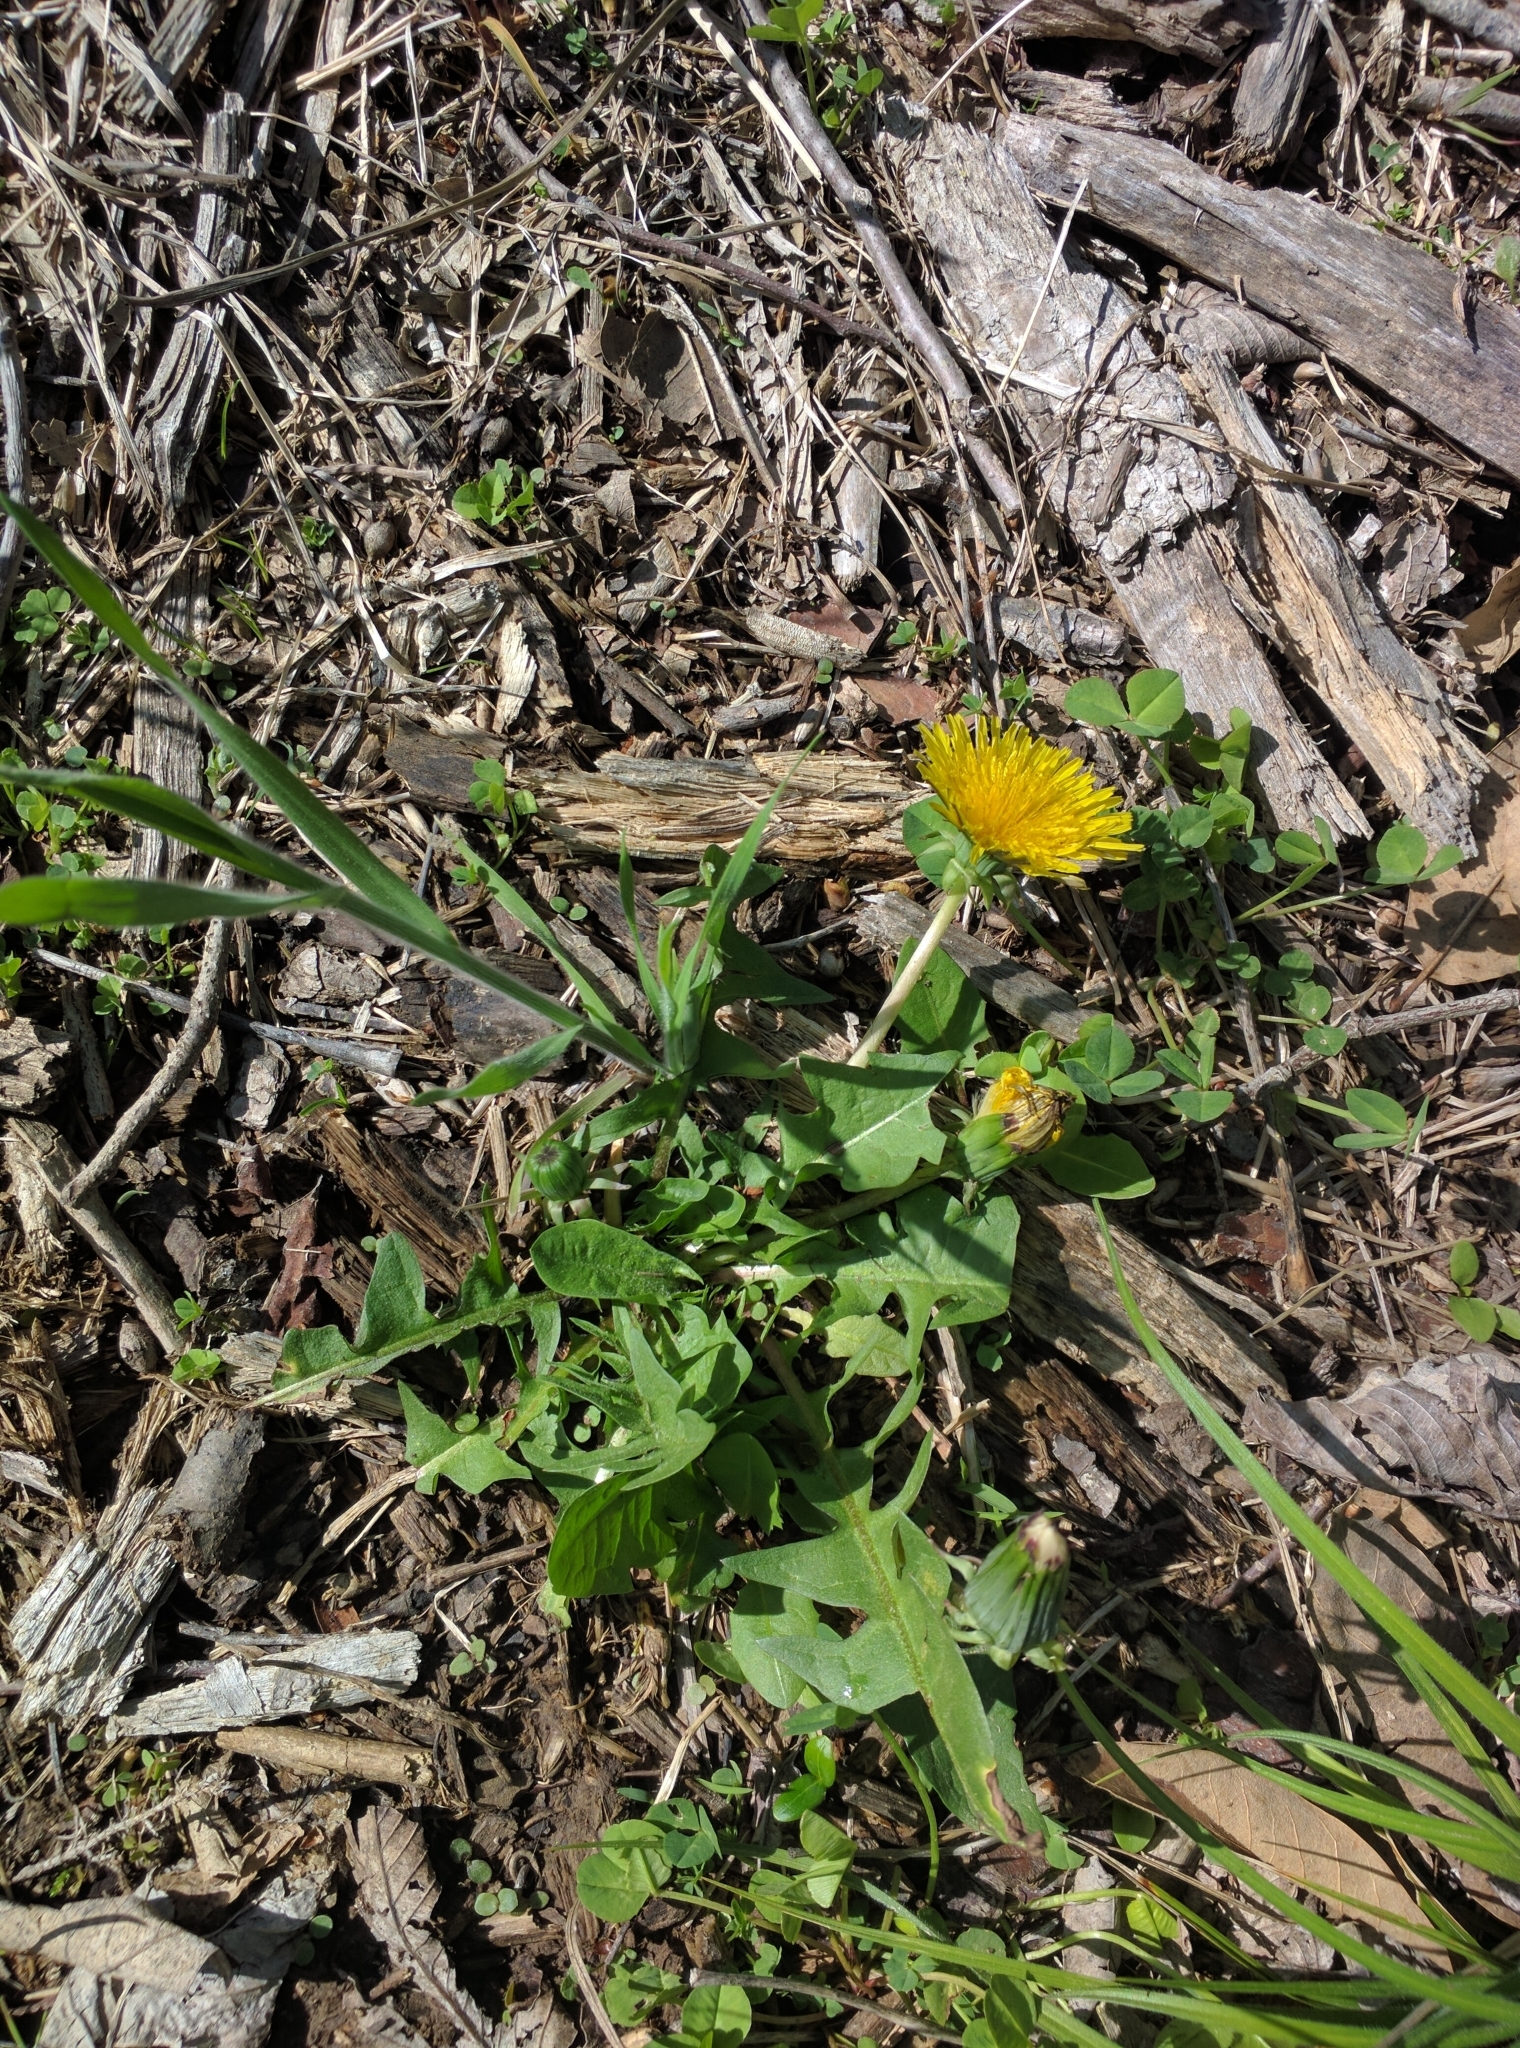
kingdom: Plantae
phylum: Tracheophyta
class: Magnoliopsida
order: Asterales
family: Asteraceae
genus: Taraxacum
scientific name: Taraxacum officinale
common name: Common dandelion
